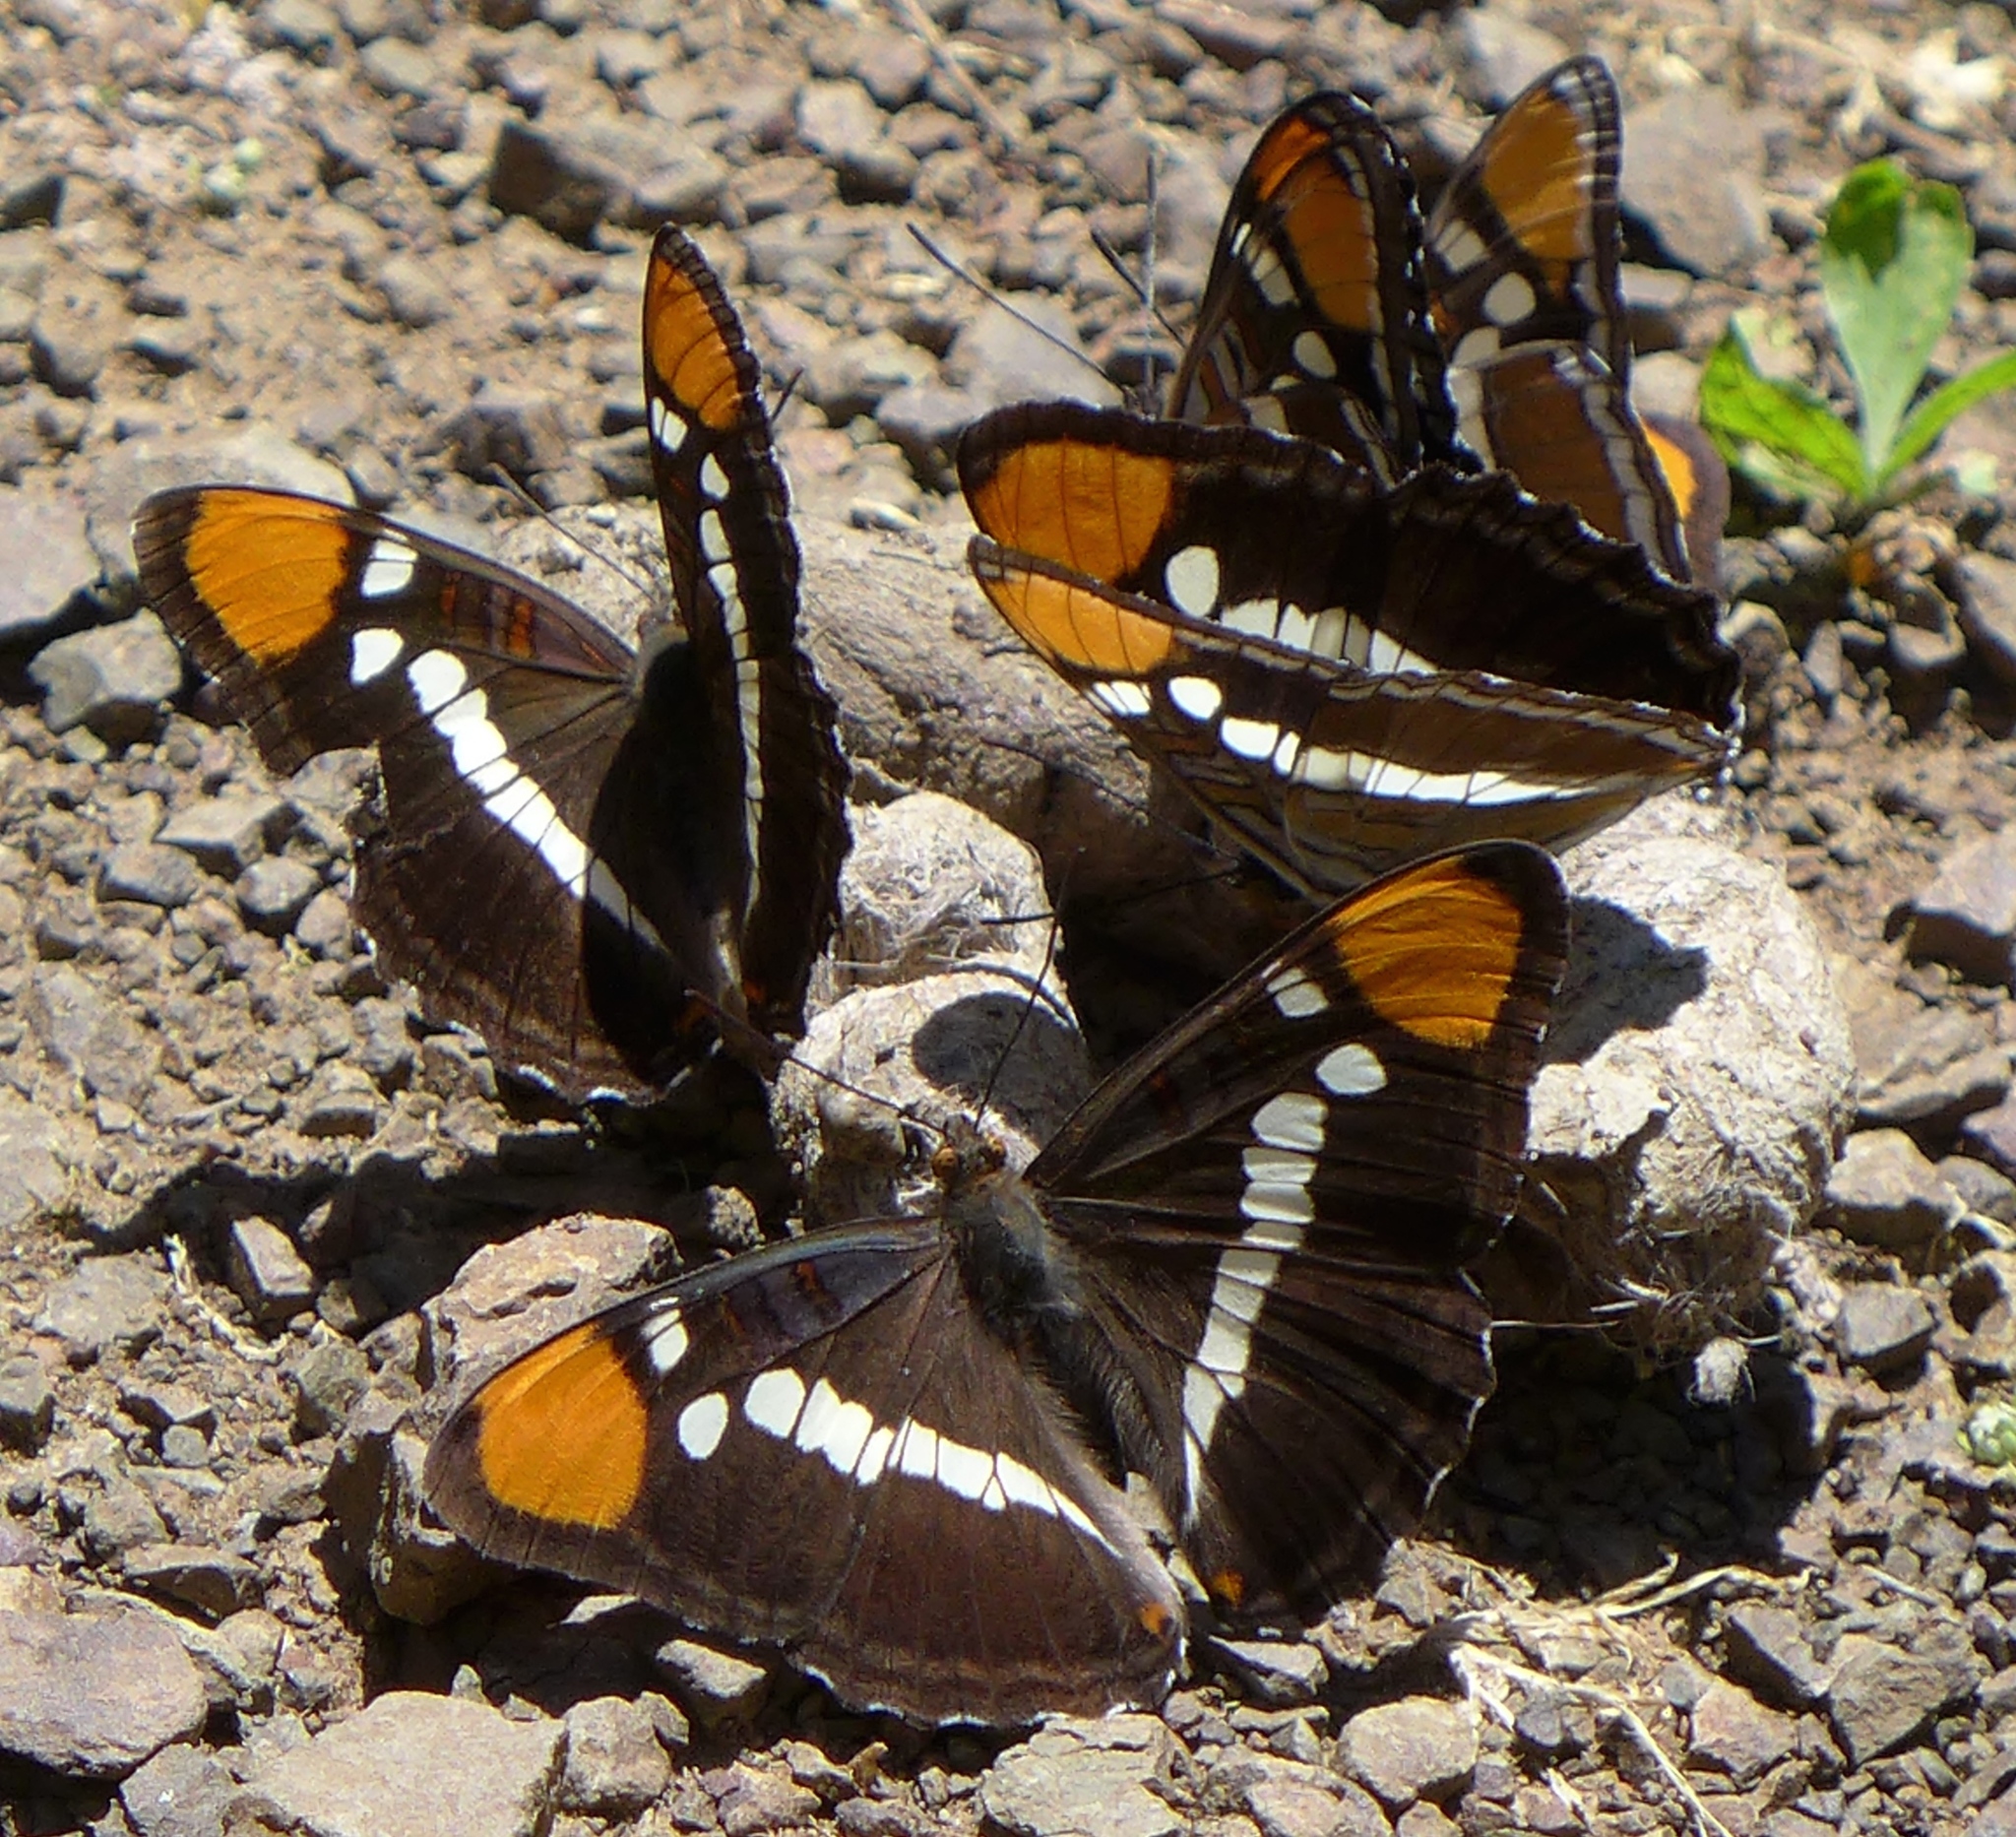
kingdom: Animalia
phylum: Arthropoda
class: Insecta
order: Lepidoptera
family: Nymphalidae
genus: Limenitis
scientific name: Limenitis bredowii
